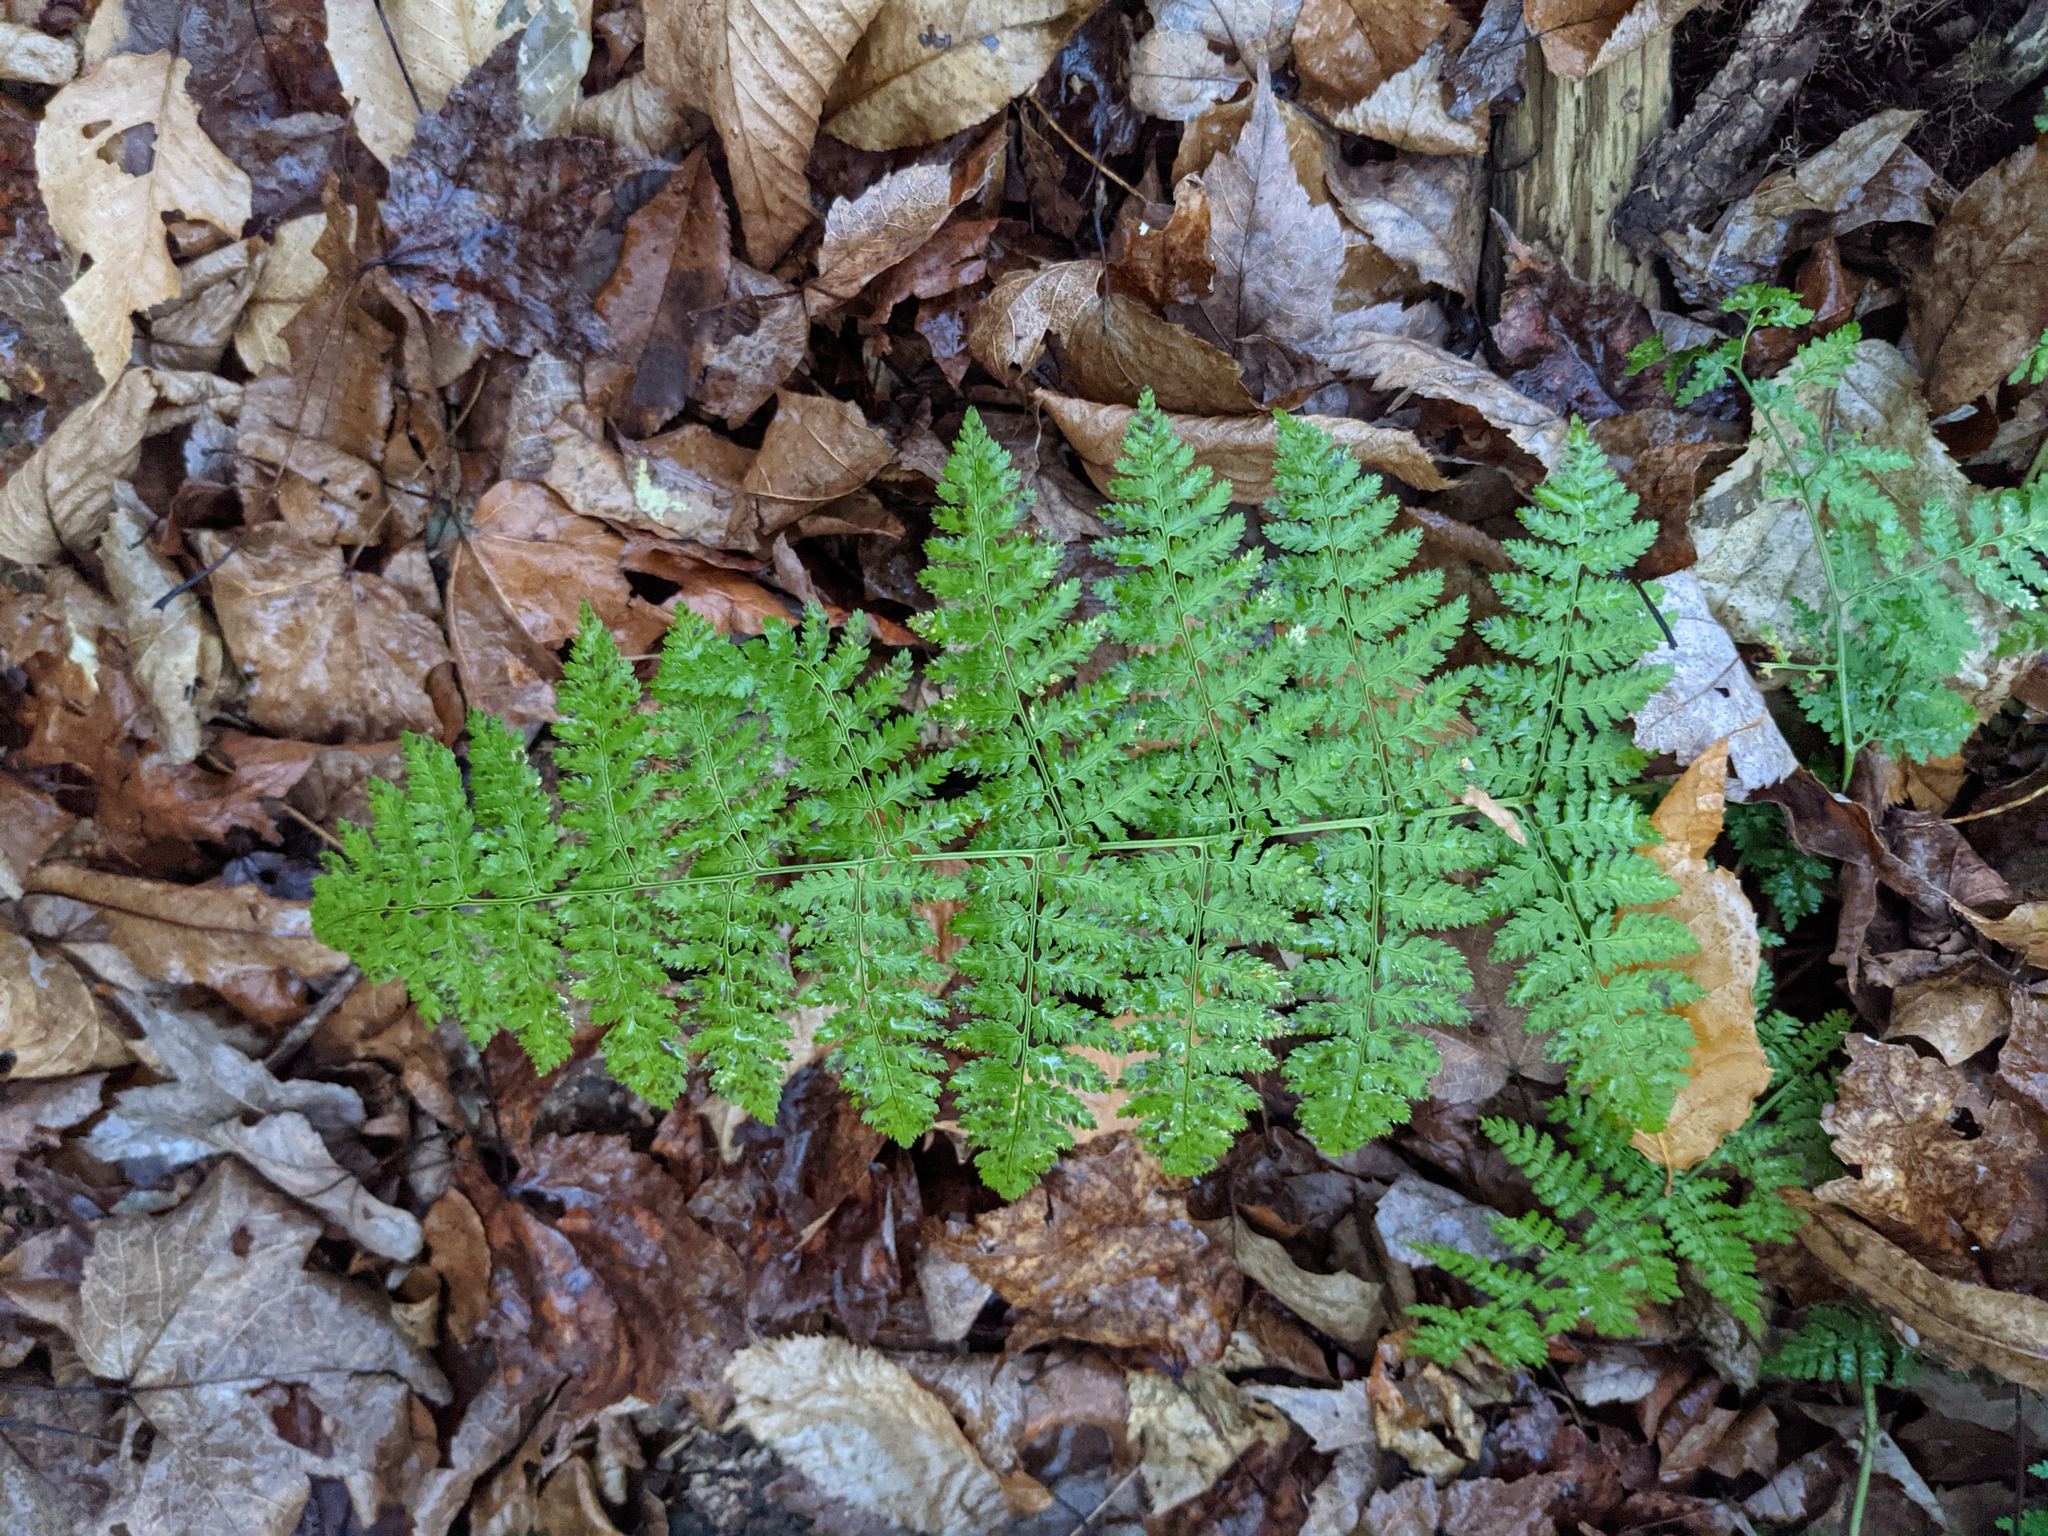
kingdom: Plantae
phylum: Tracheophyta
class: Polypodiopsida
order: Polypodiales
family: Dryopteridaceae
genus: Dryopteris
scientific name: Dryopteris intermedia
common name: Evergreen wood fern
